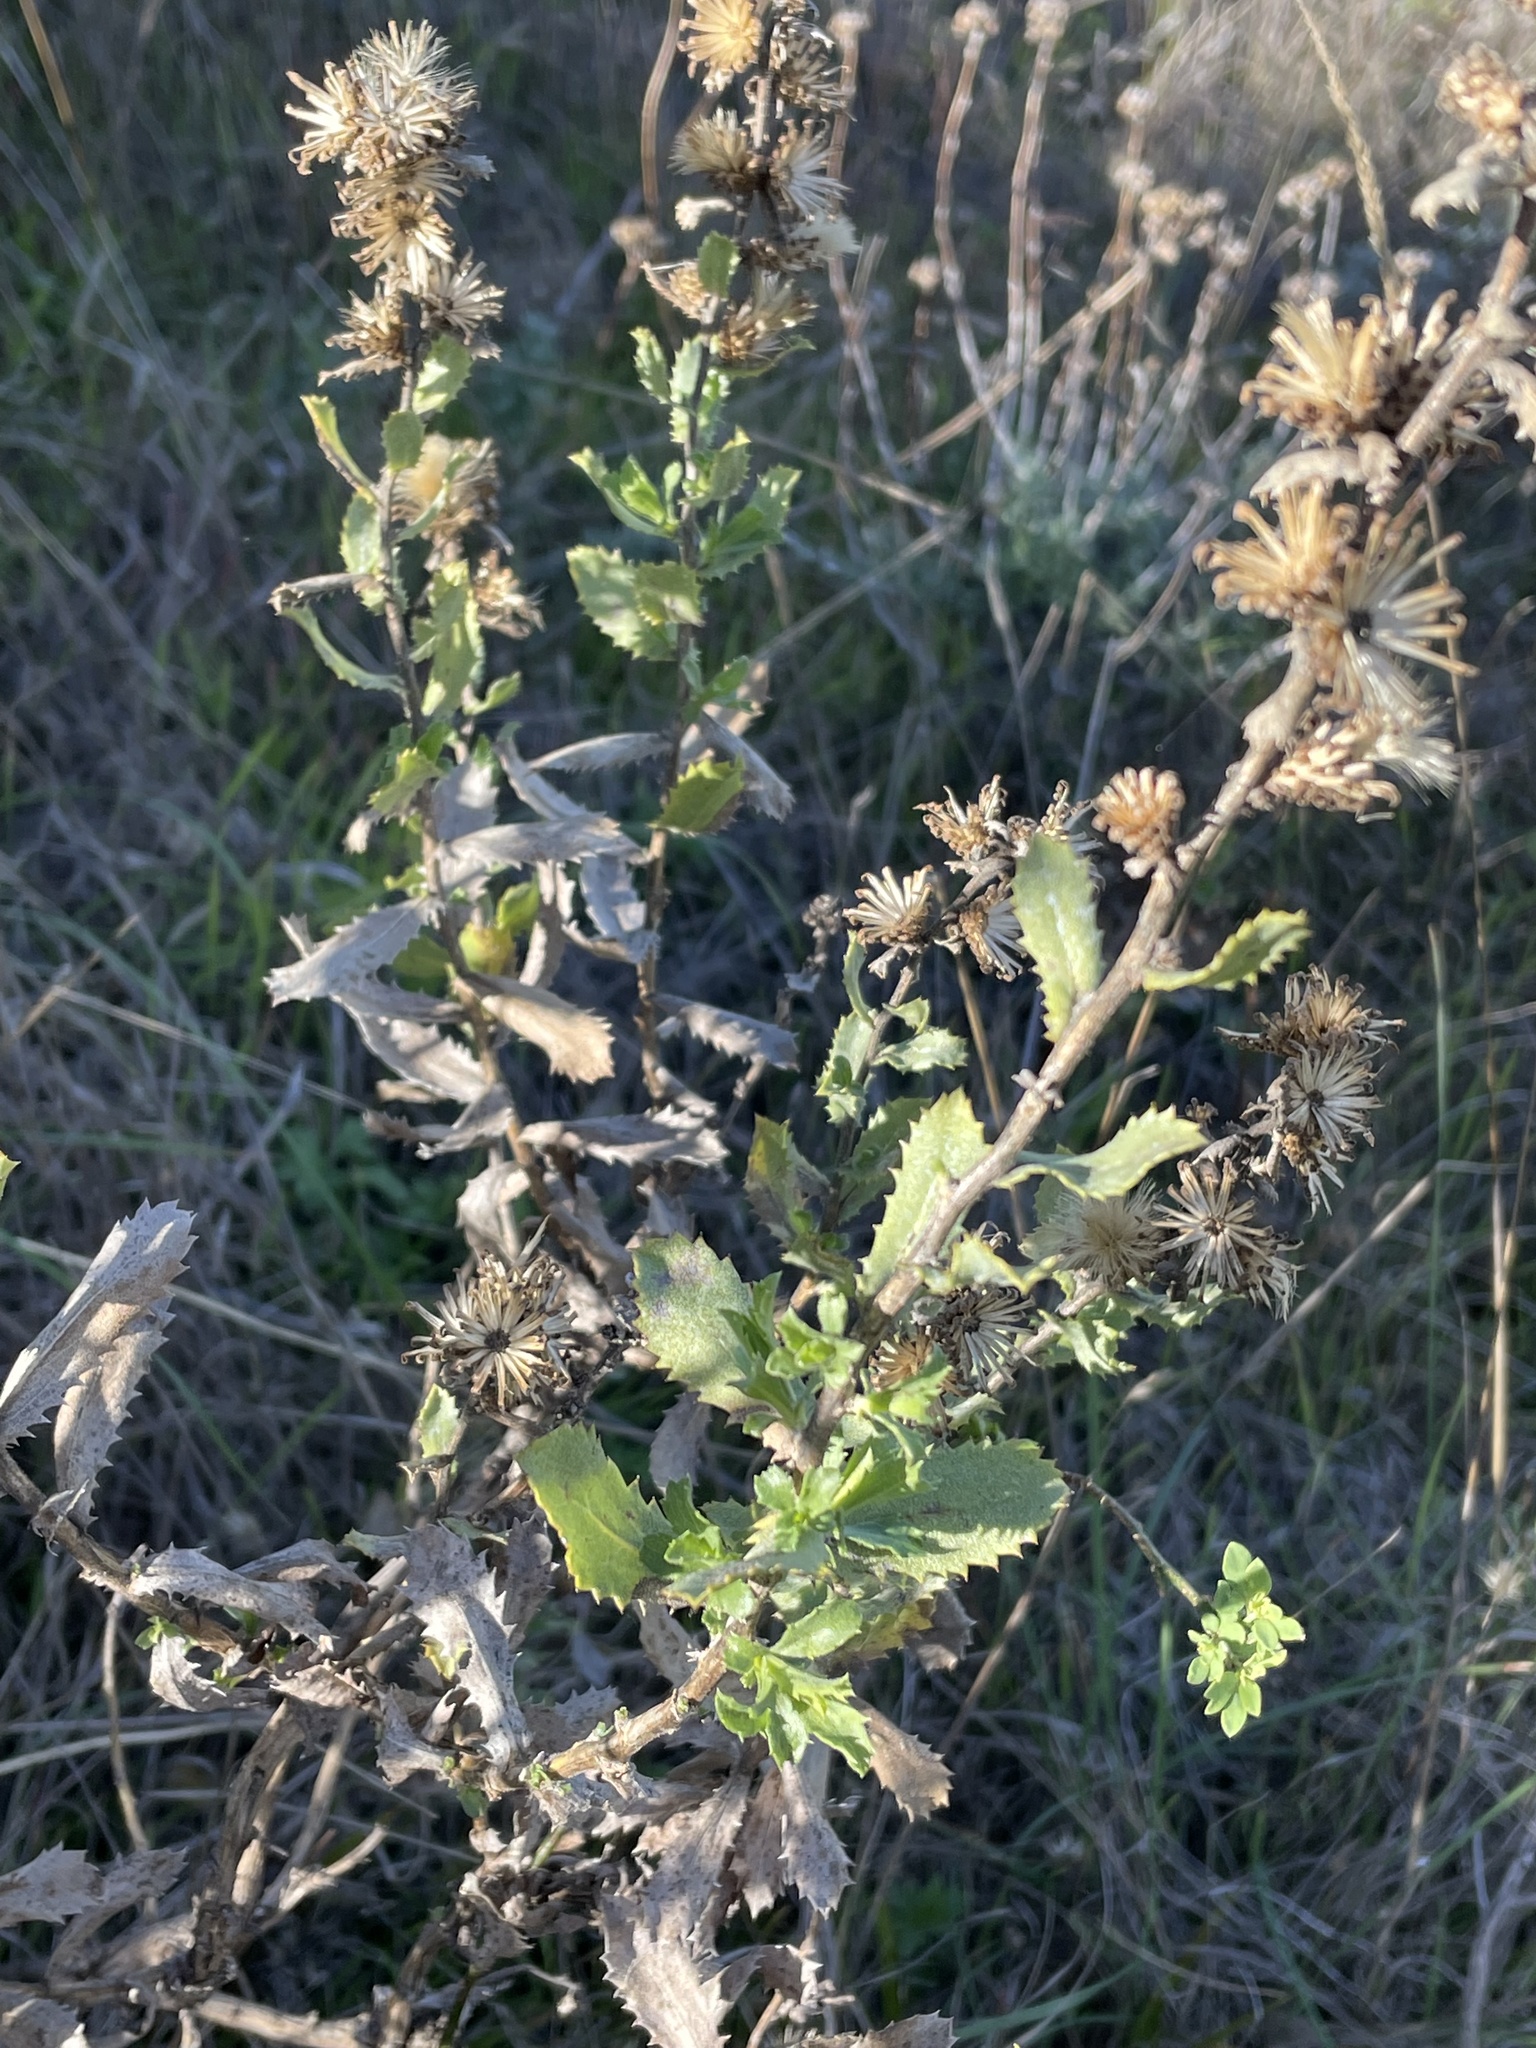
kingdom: Plantae
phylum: Tracheophyta
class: Magnoliopsida
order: Asterales
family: Asteraceae
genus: Hazardia
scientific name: Hazardia squarrosa
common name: Saw-tooth goldenbush
